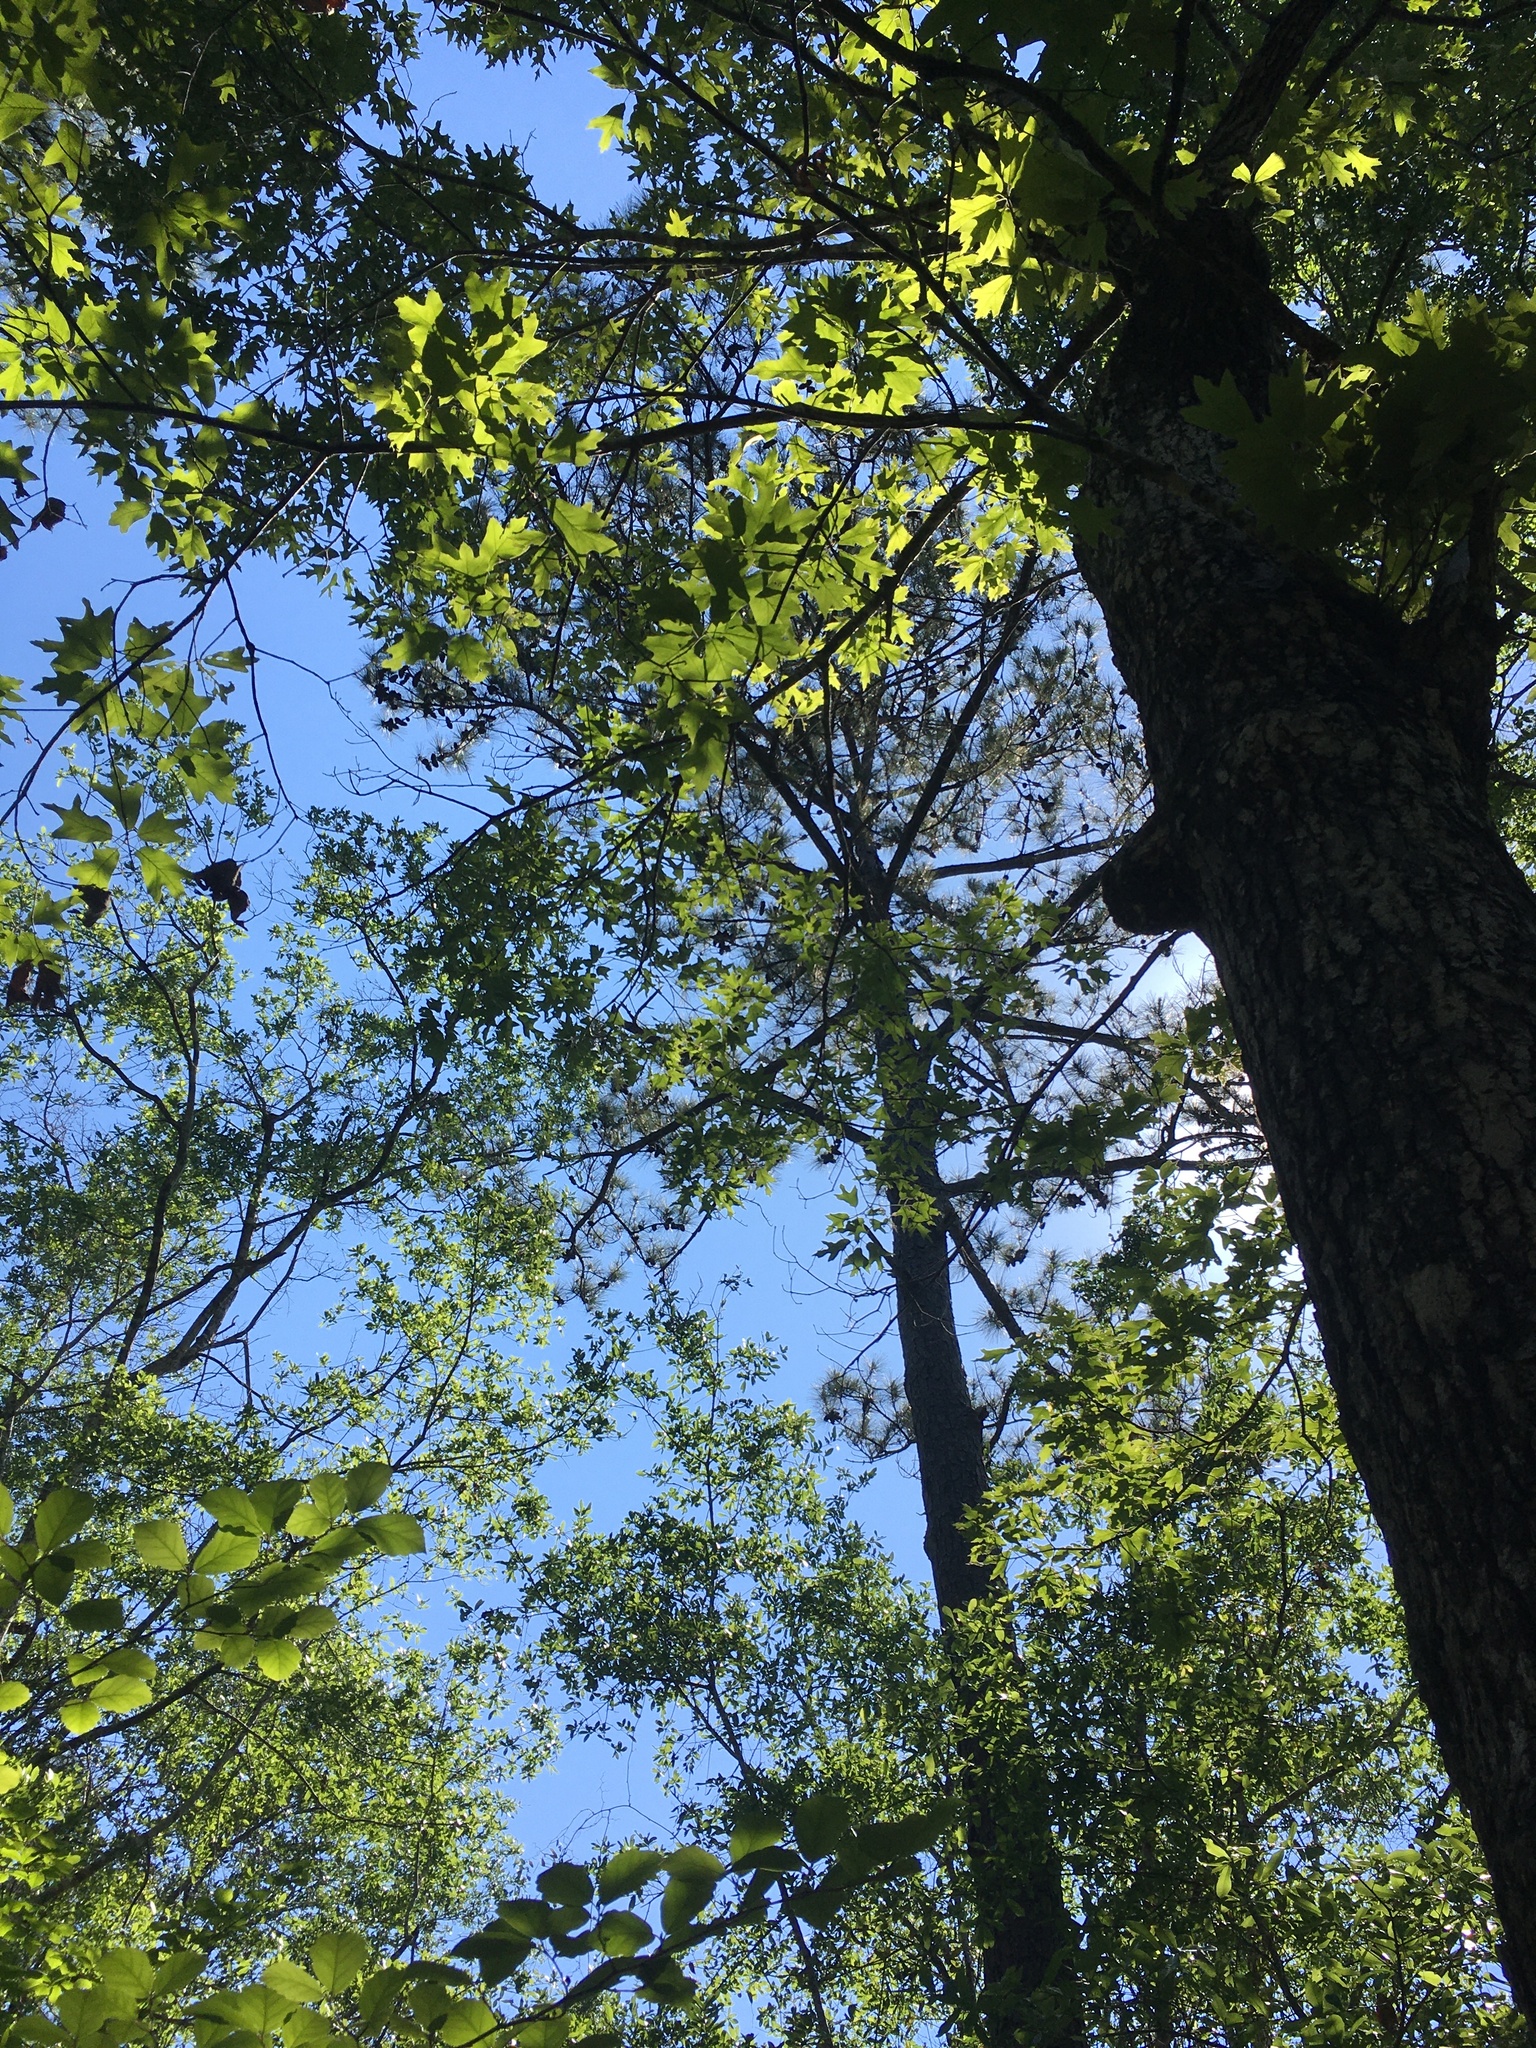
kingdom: Plantae
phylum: Tracheophyta
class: Pinopsida
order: Pinales
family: Pinaceae
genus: Pinus
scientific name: Pinus taeda
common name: Loblolly pine
